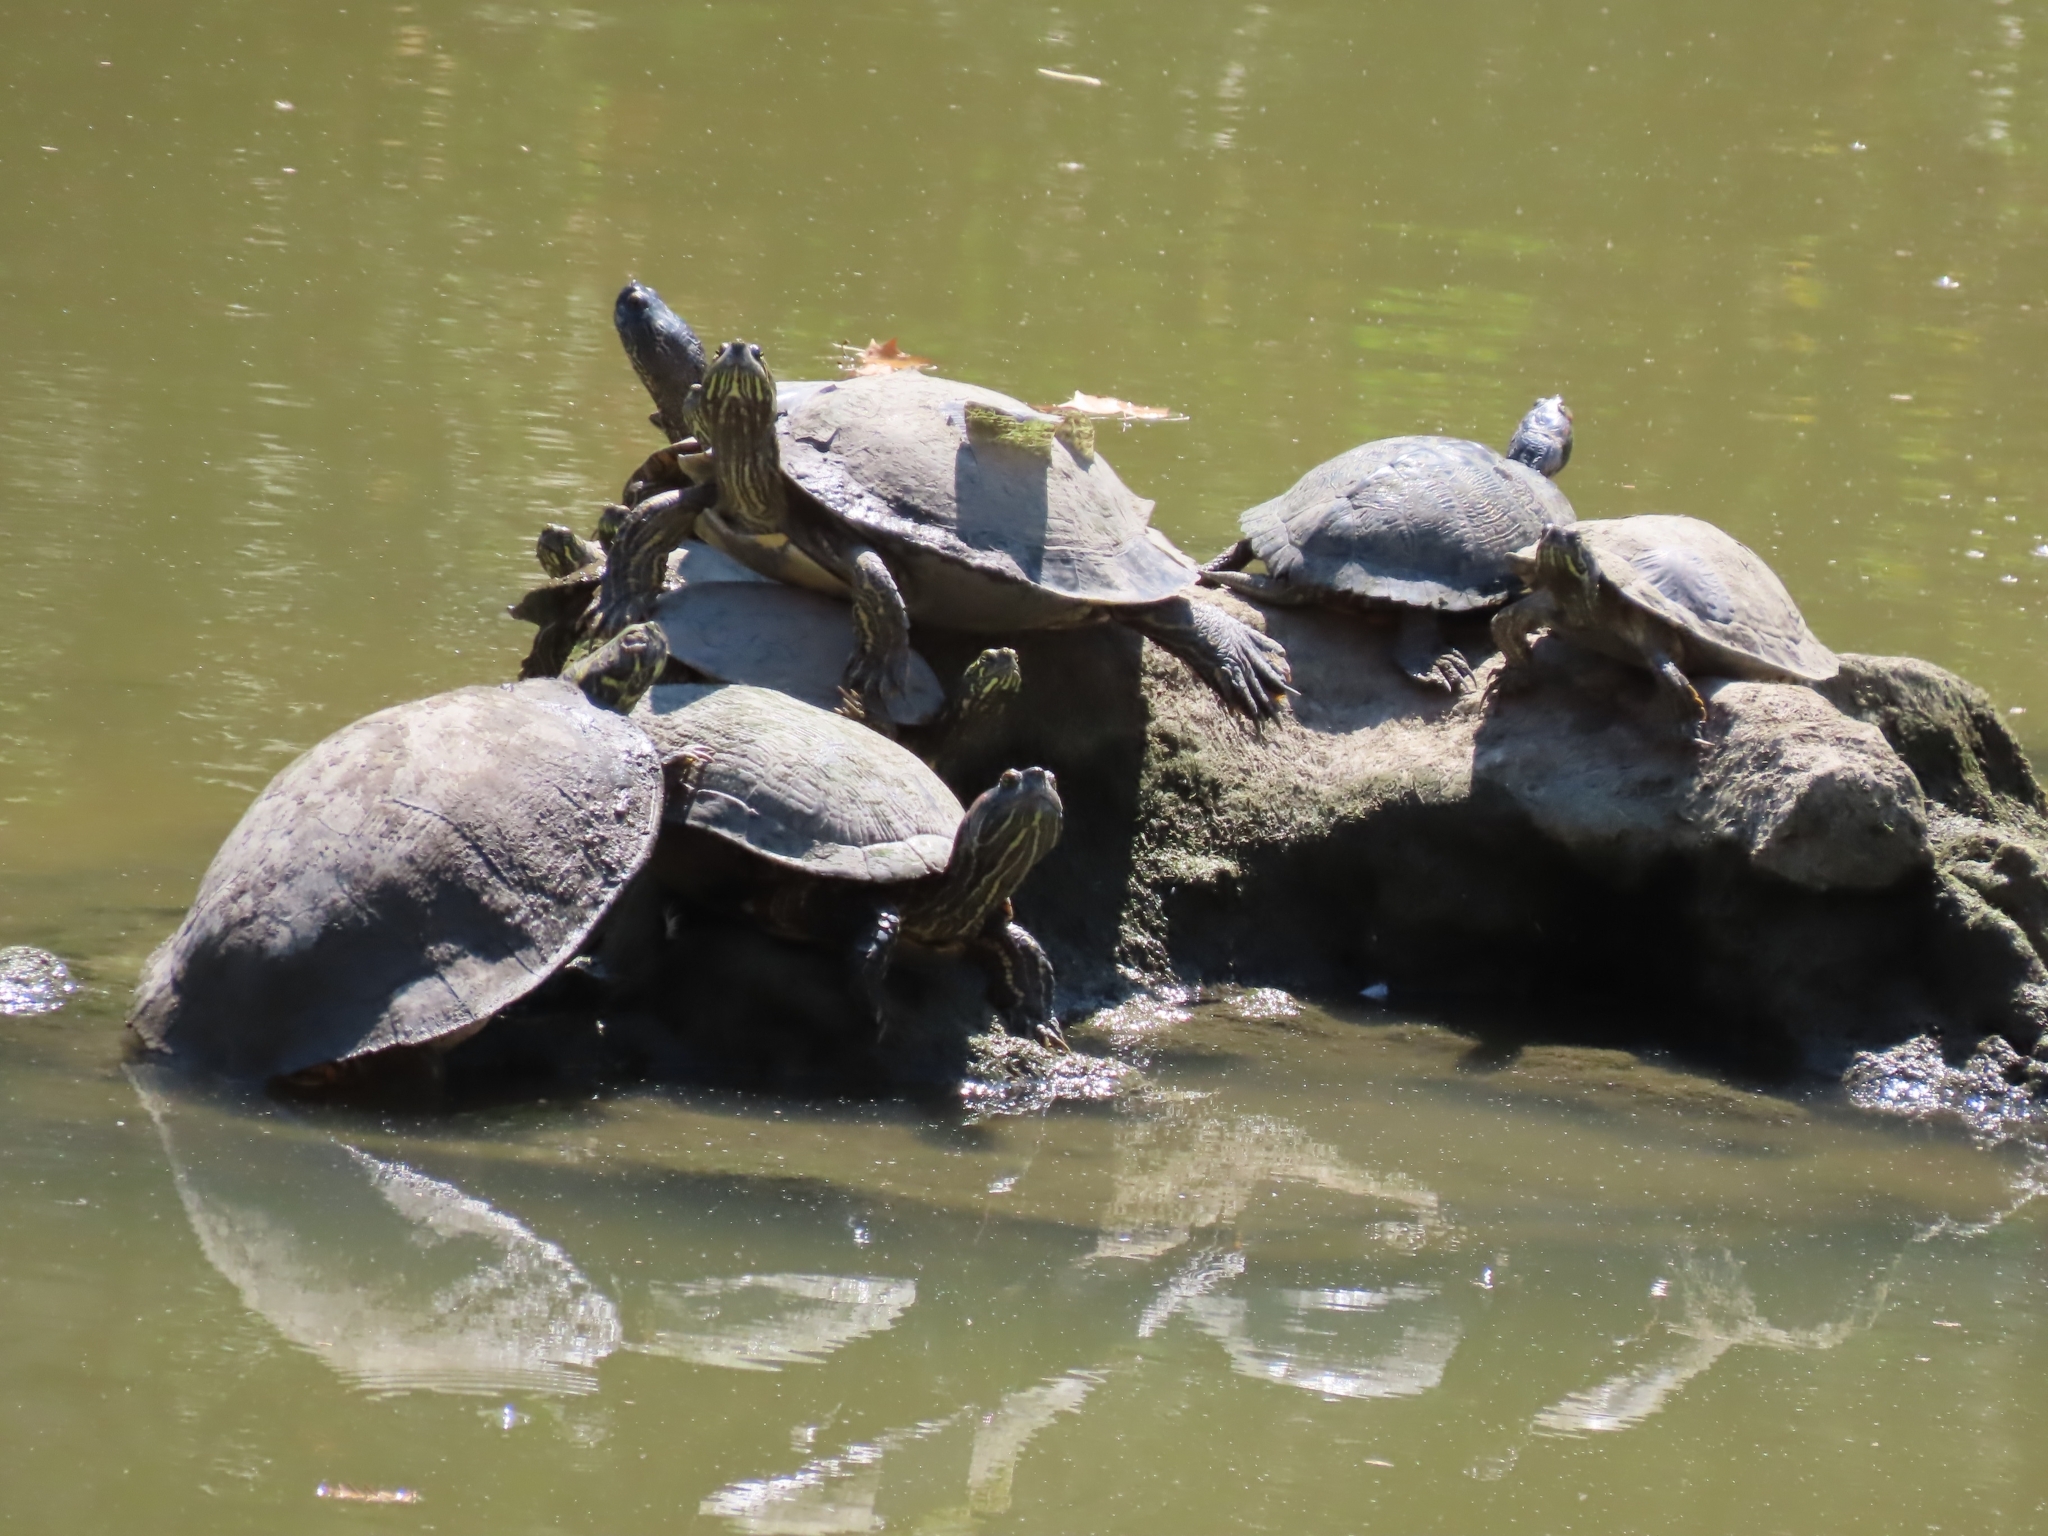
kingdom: Animalia
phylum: Chordata
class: Testudines
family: Emydidae
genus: Pseudemys
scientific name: Pseudemys texana
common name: Texas river cooter
